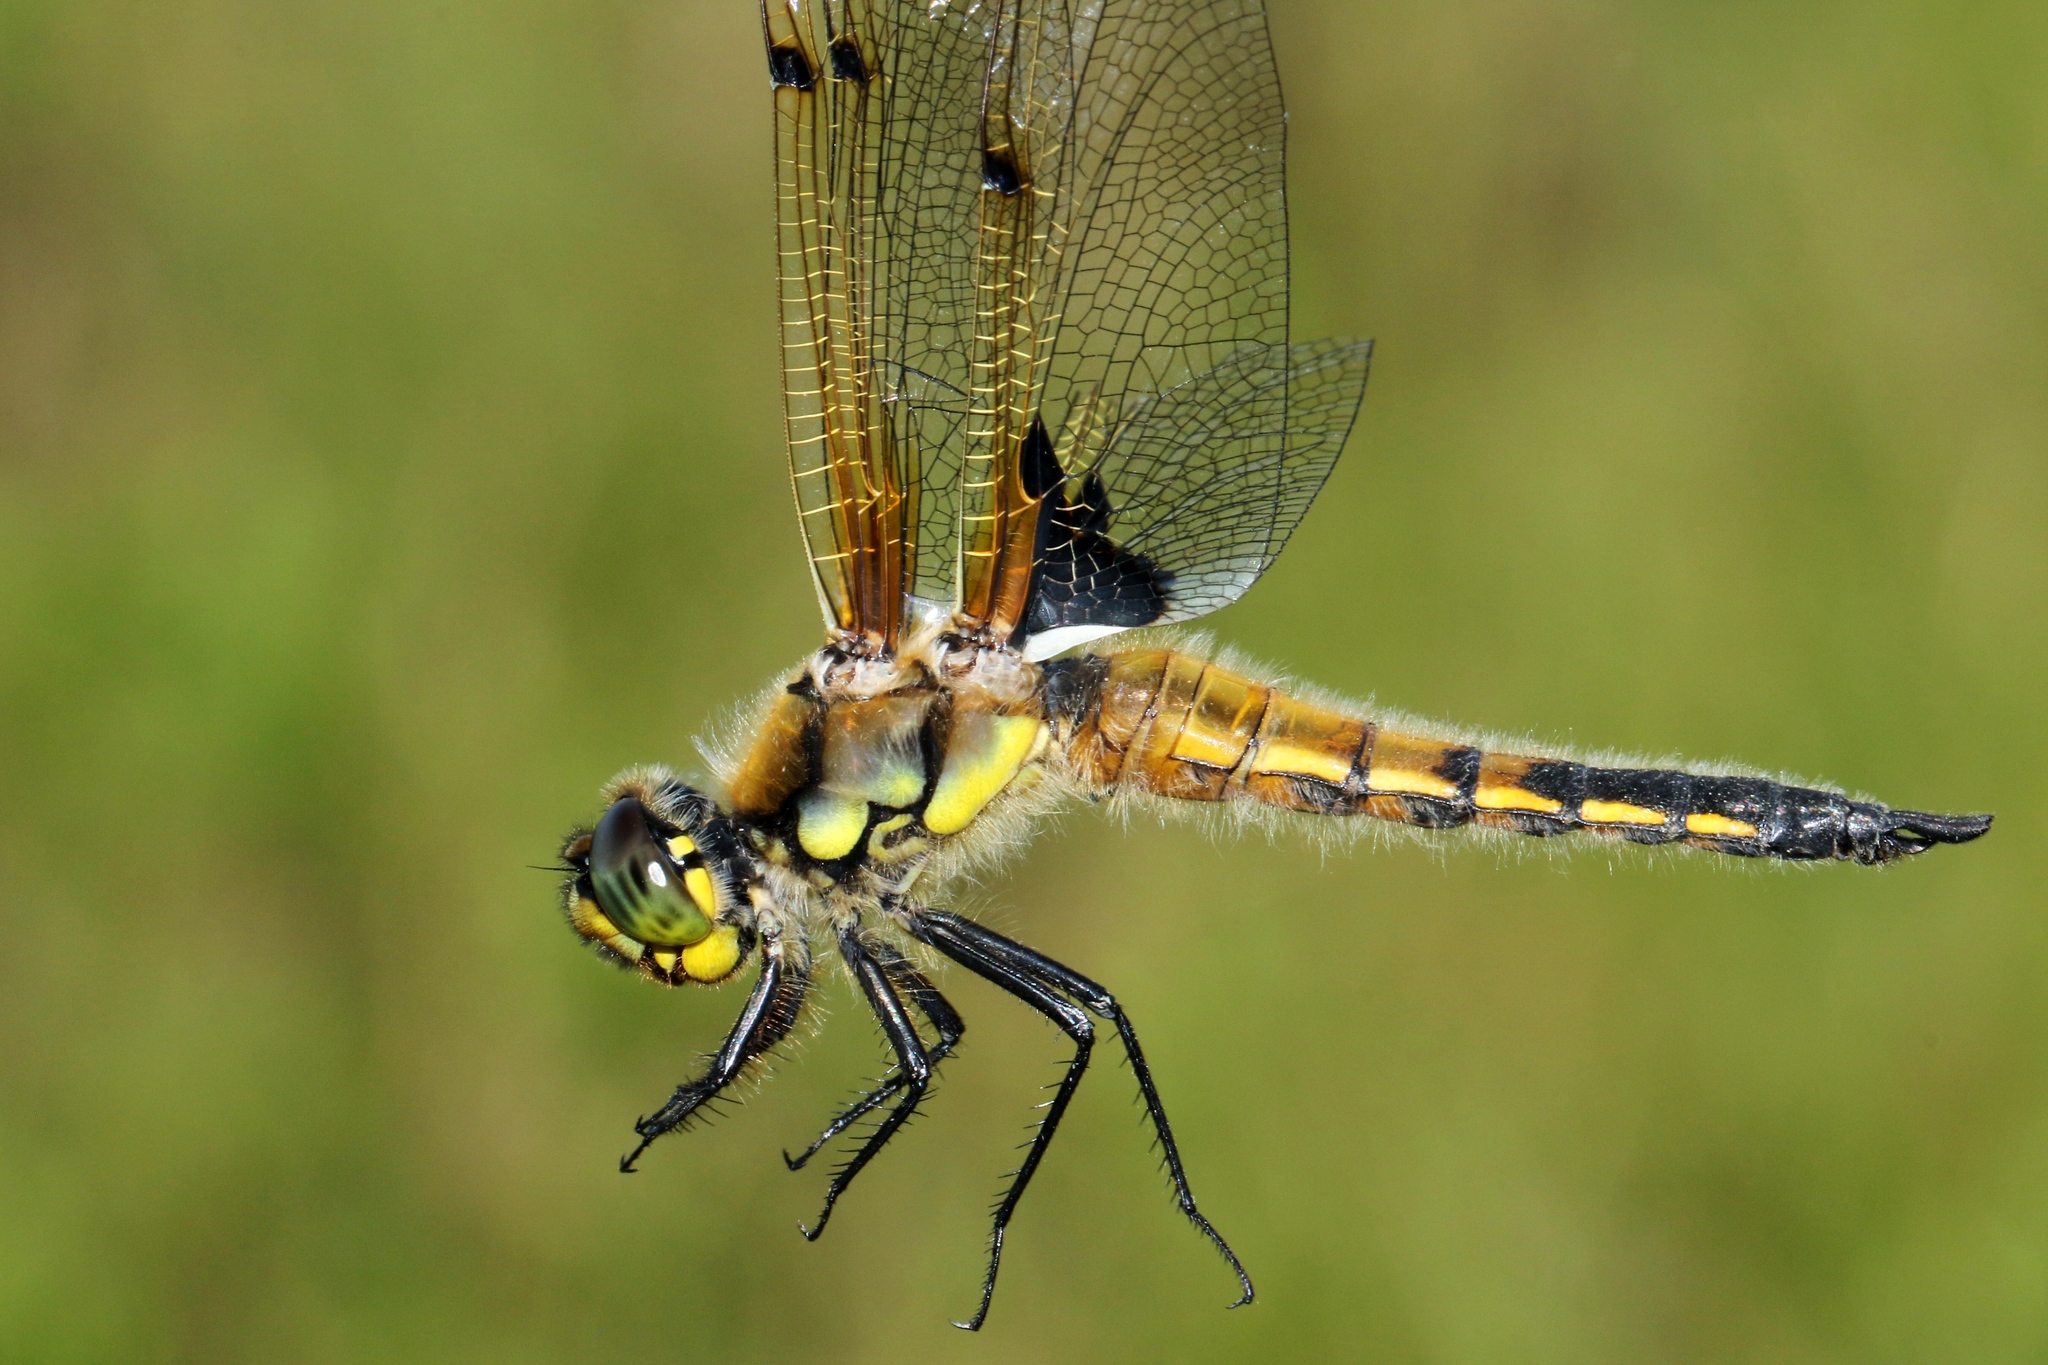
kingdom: Animalia
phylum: Arthropoda
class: Insecta
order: Odonata
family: Libellulidae
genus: Libellula
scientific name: Libellula quadrimaculata
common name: Four-spotted chaser
